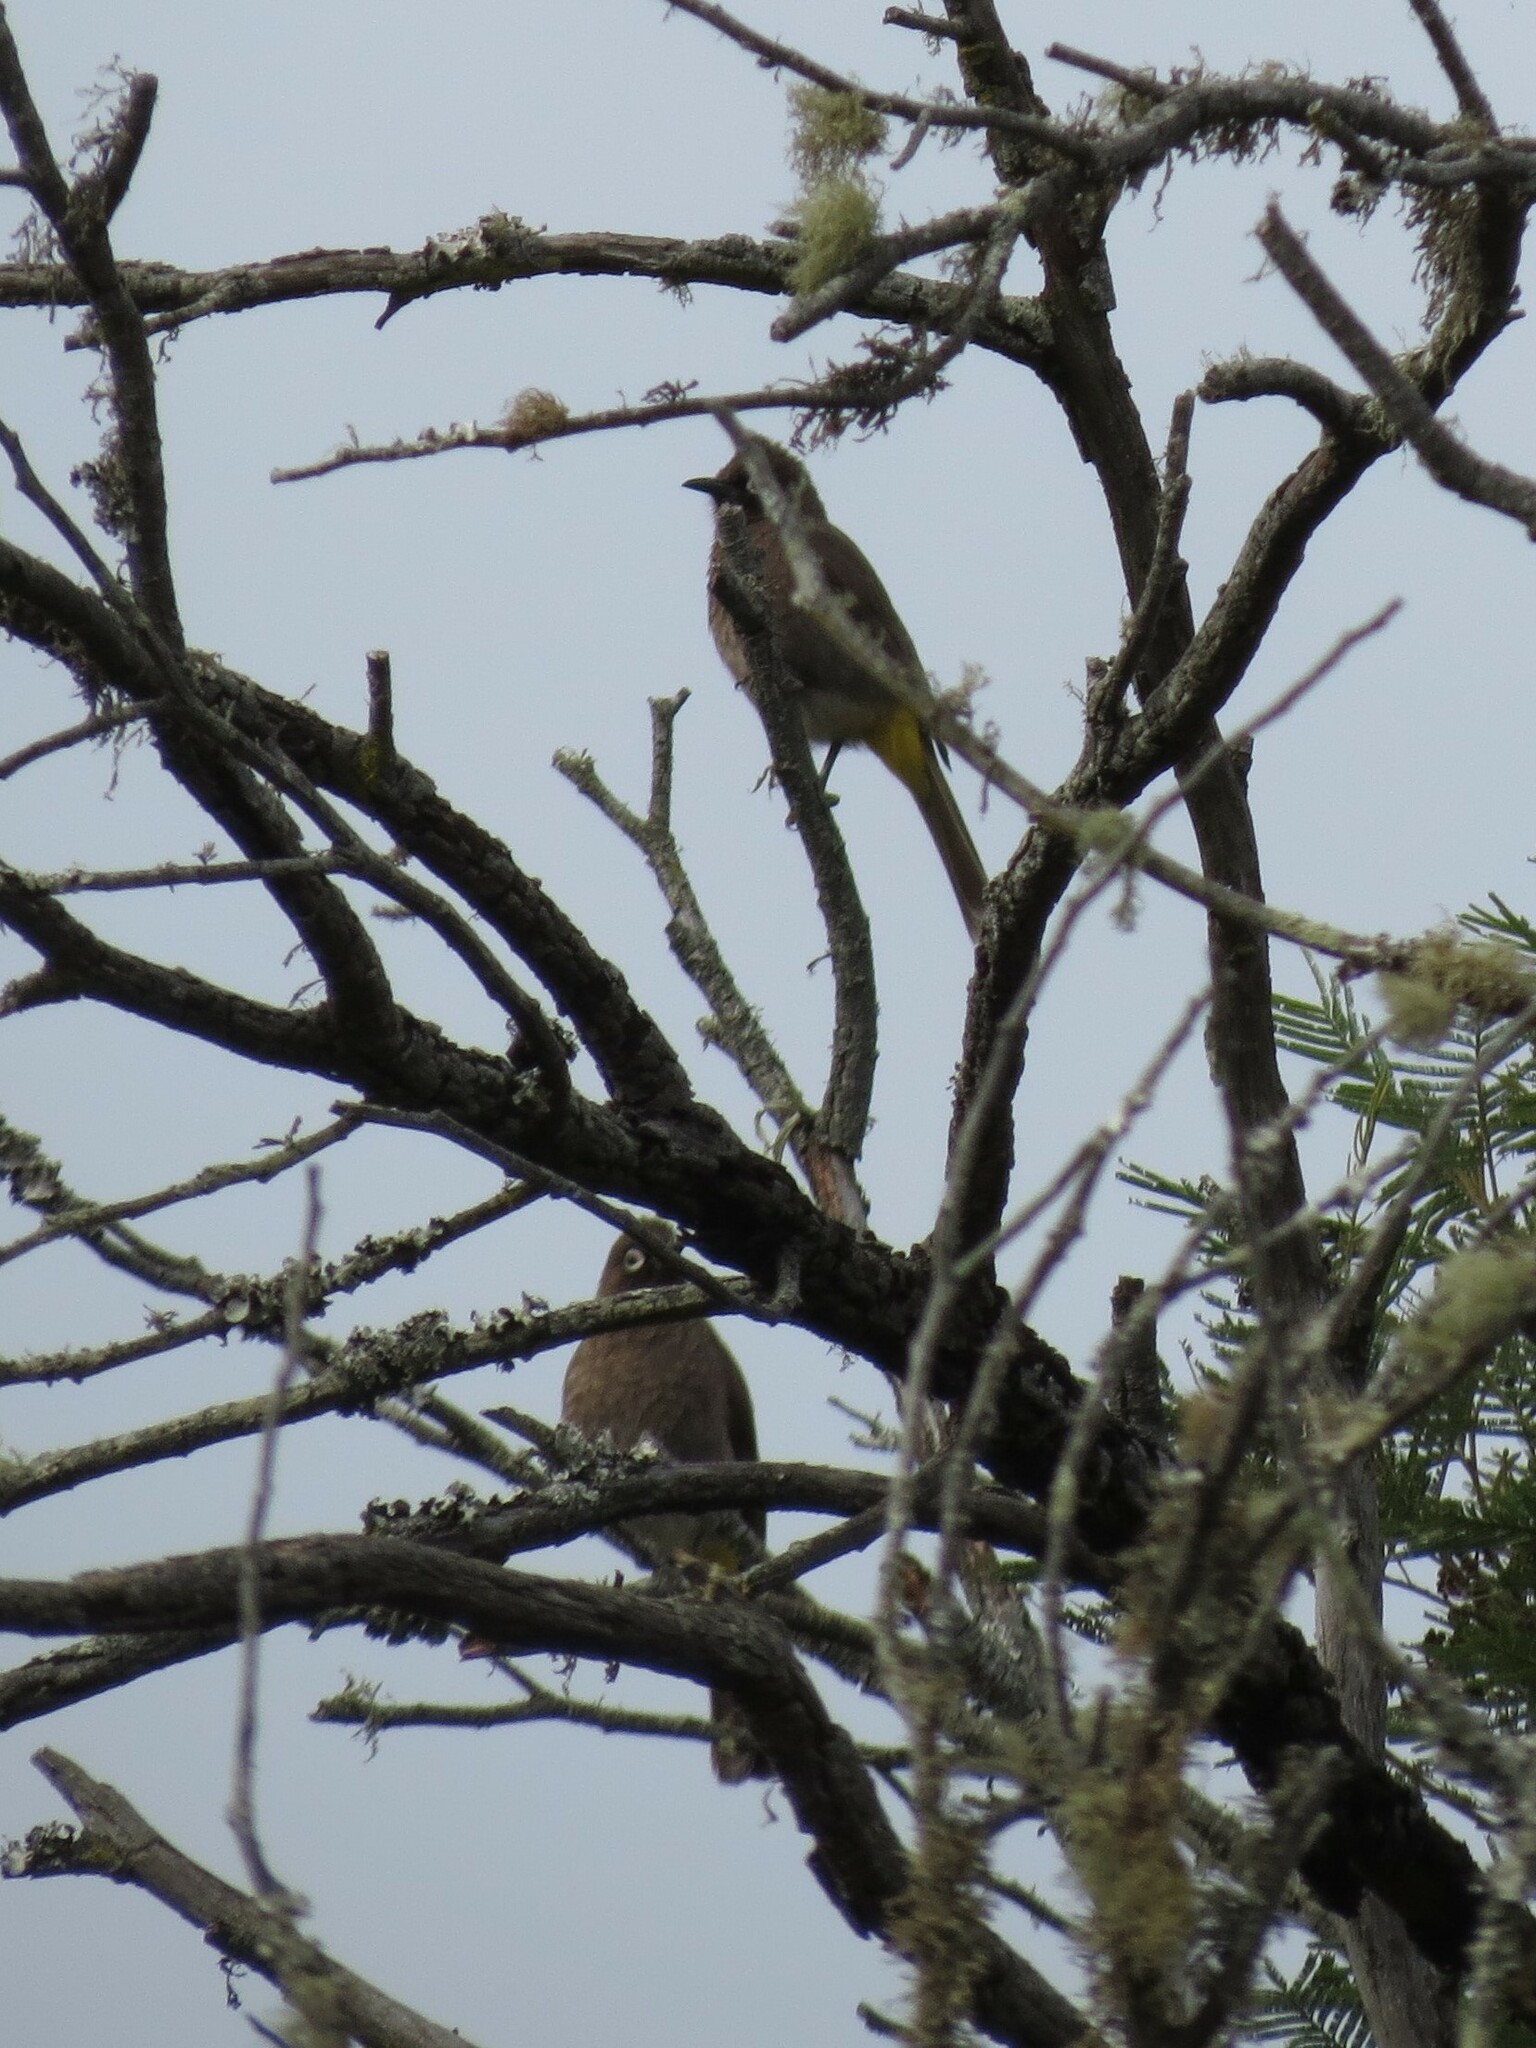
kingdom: Animalia
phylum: Chordata
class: Aves
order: Passeriformes
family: Pycnonotidae
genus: Pycnonotus
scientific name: Pycnonotus capensis
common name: Cape bulbul
